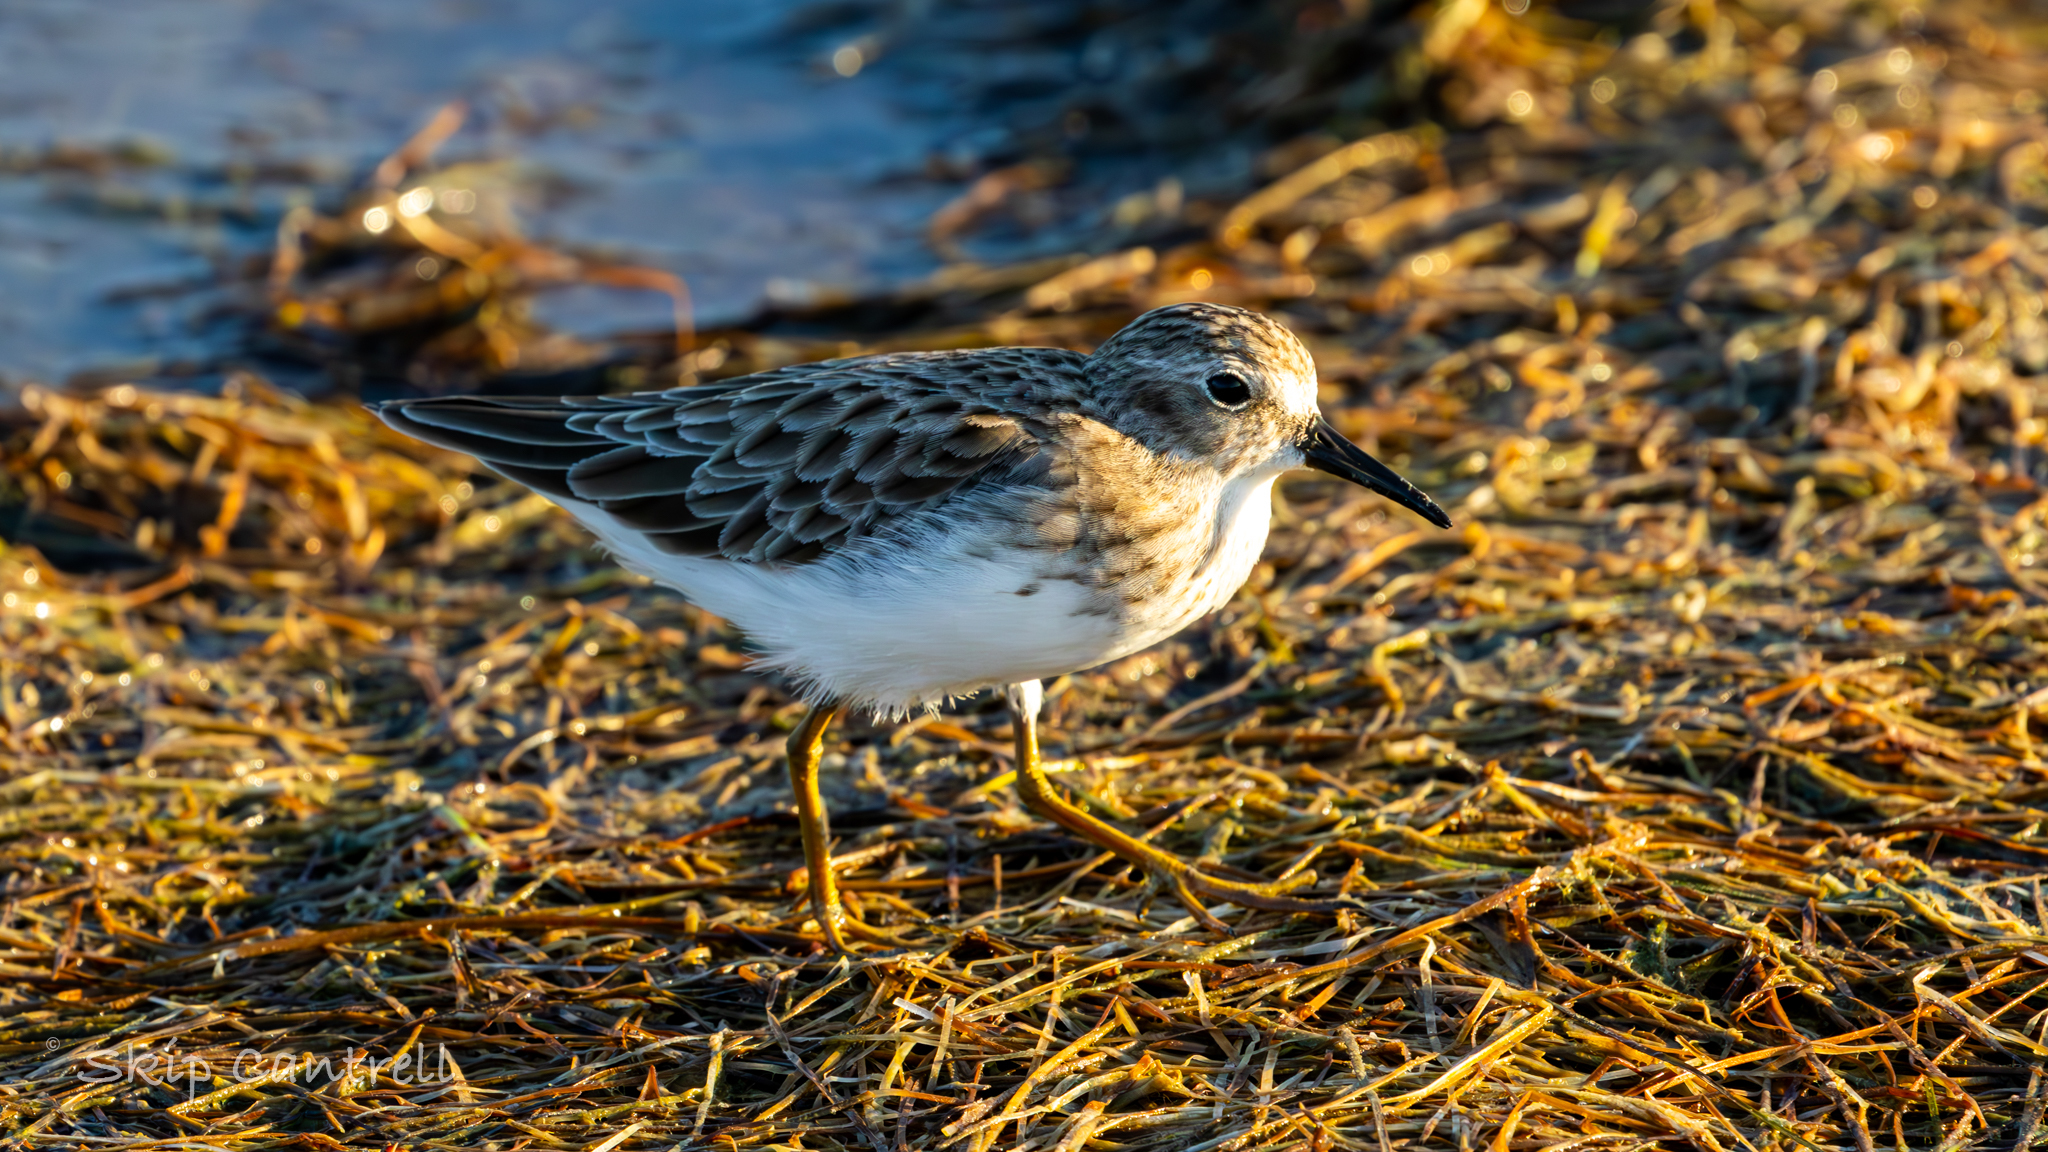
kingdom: Animalia
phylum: Chordata
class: Aves
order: Charadriiformes
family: Scolopacidae
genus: Calidris
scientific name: Calidris minutilla
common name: Least sandpiper
